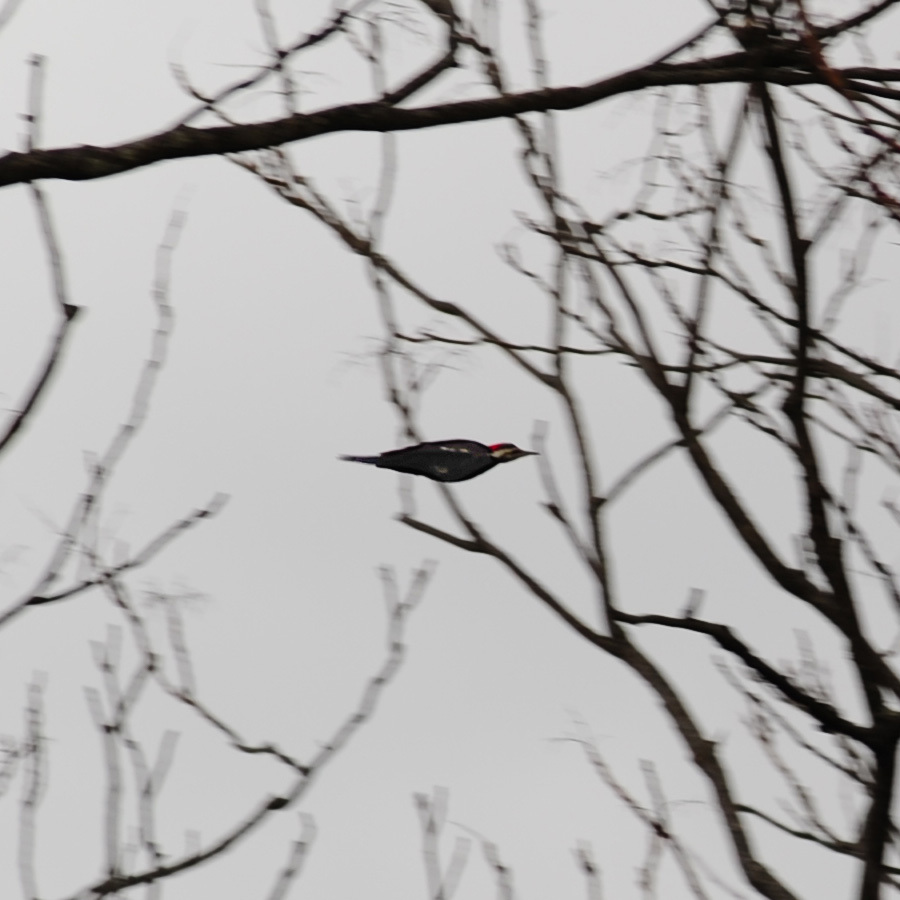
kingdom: Animalia
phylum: Chordata
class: Aves
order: Piciformes
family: Picidae
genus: Dryocopus
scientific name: Dryocopus pileatus
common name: Pileated woodpecker
